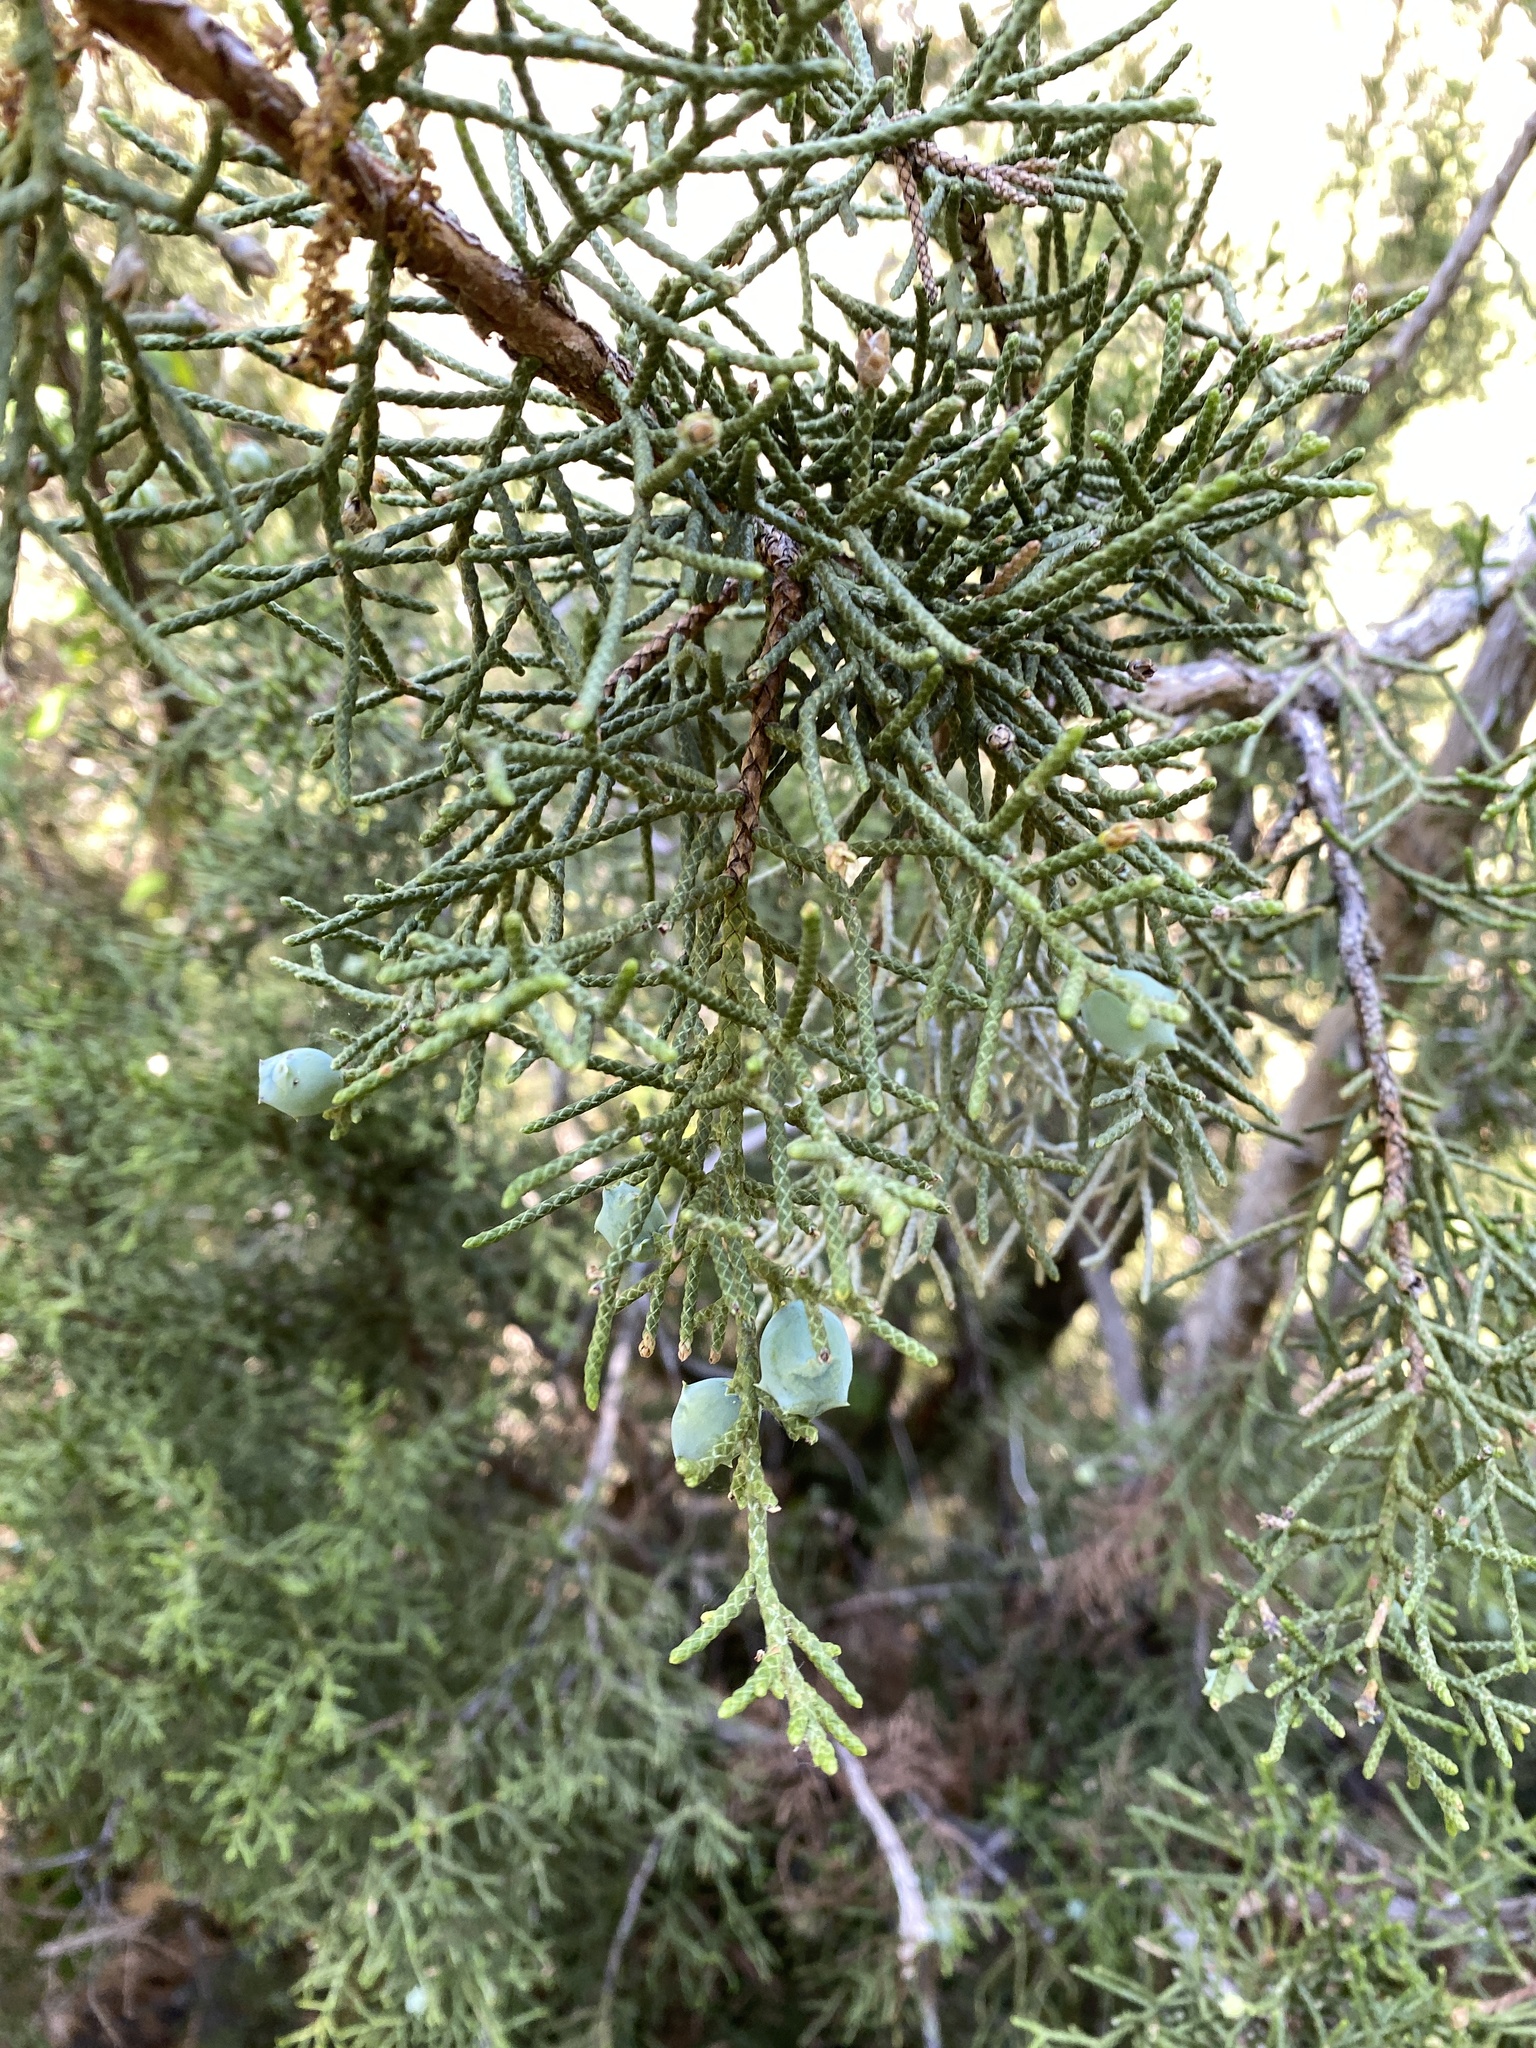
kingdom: Plantae
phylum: Tracheophyta
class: Pinopsida
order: Pinales
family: Cupressaceae
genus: Juniperus
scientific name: Juniperus californica
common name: California juniper
